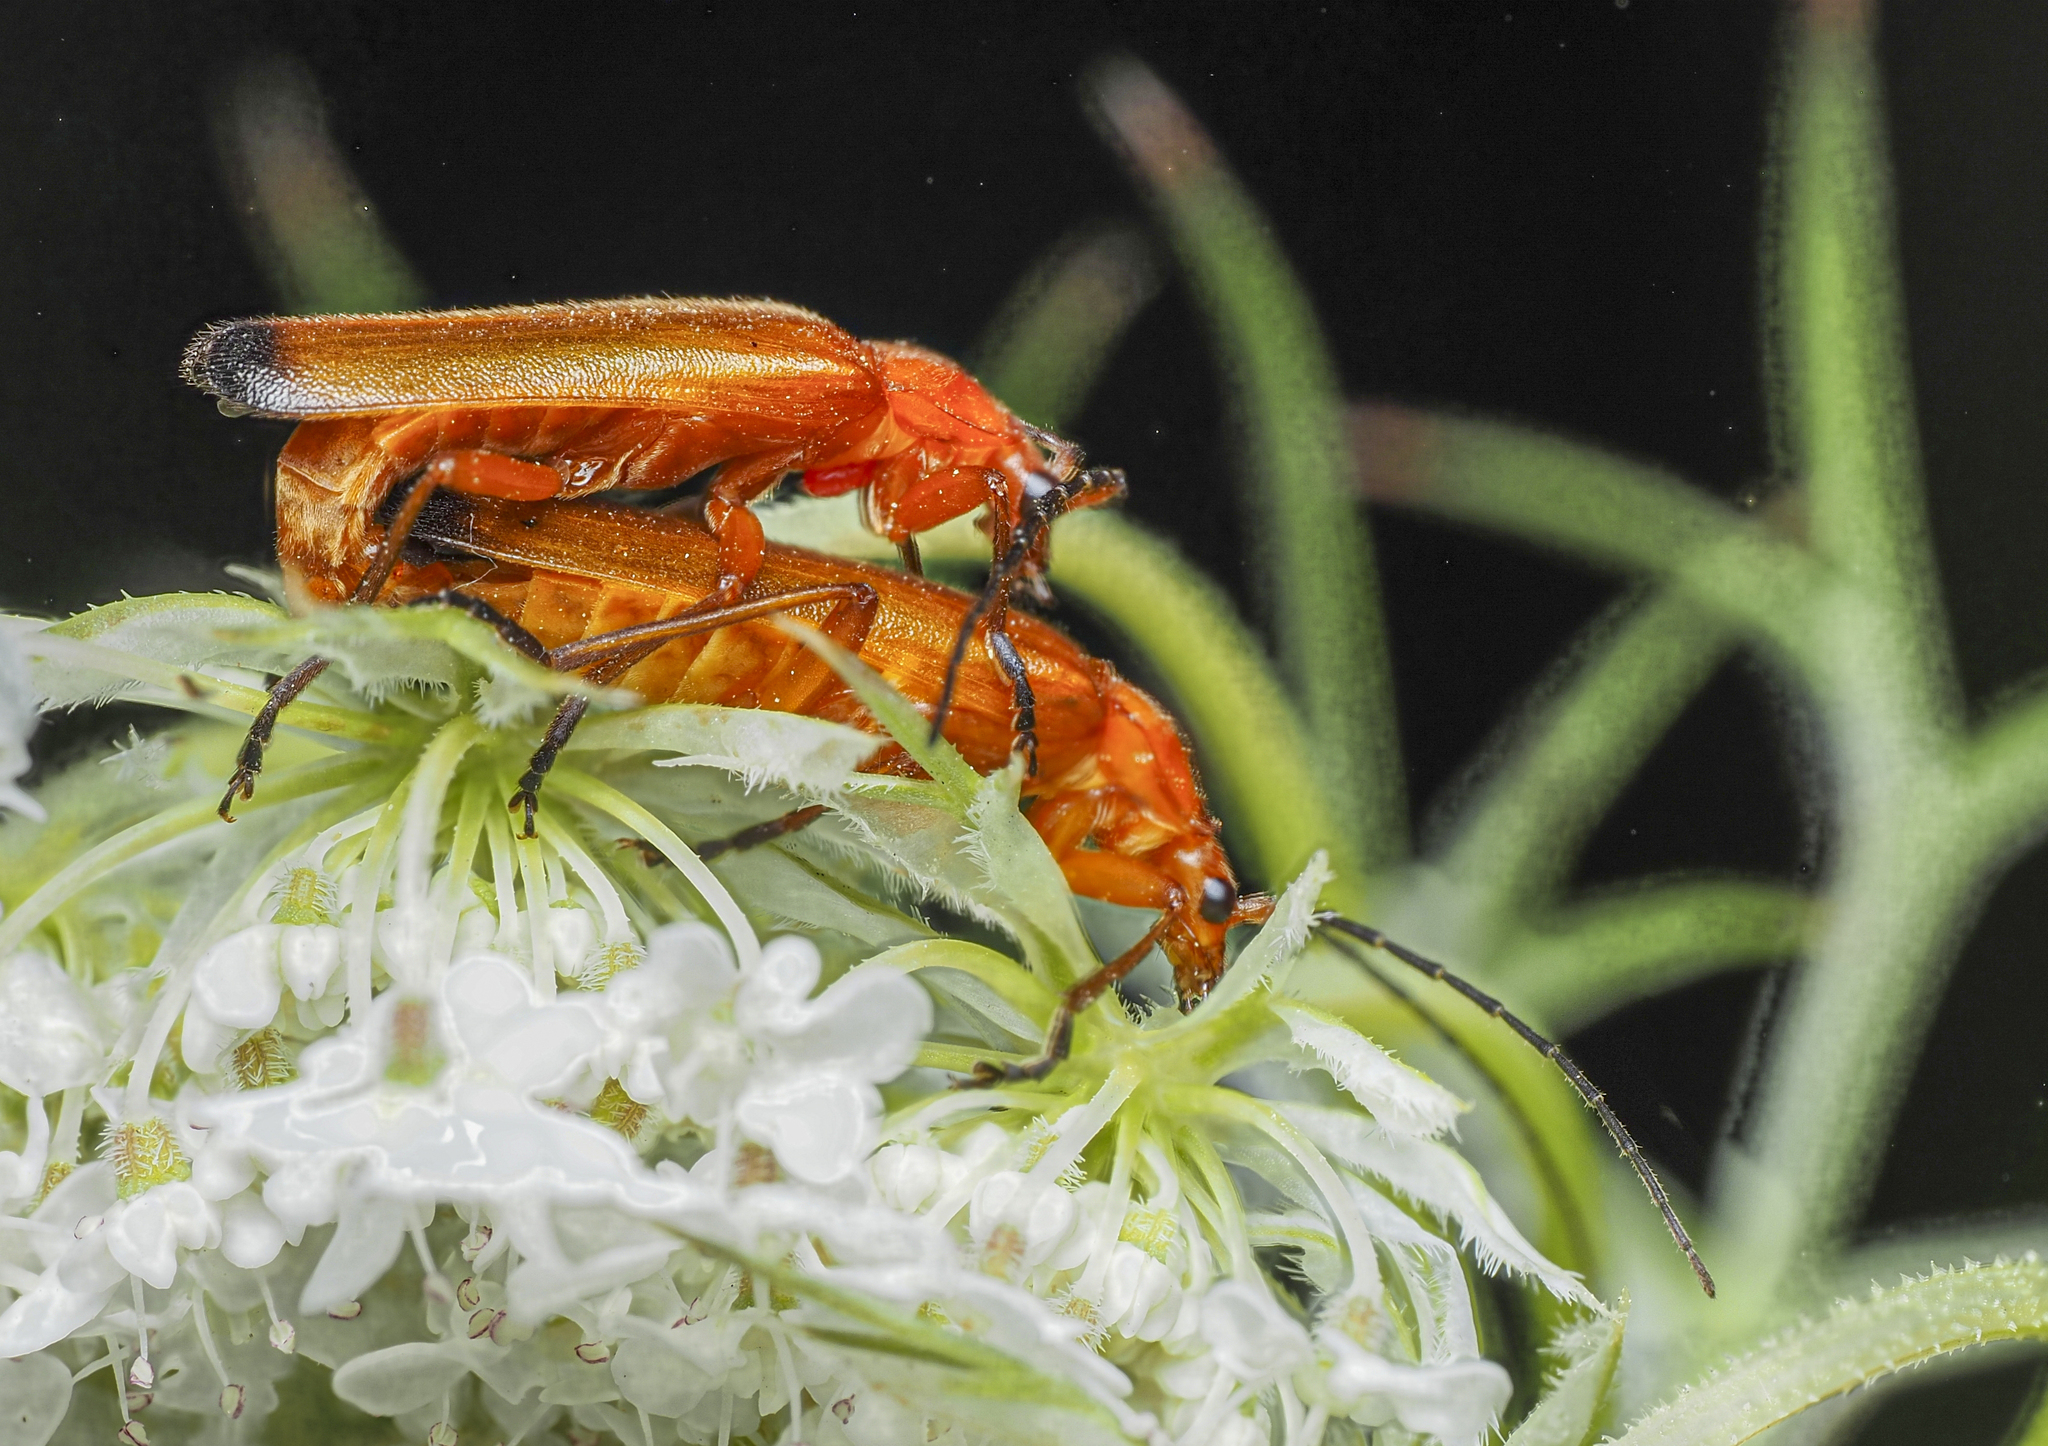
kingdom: Animalia
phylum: Arthropoda
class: Insecta
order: Coleoptera
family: Cantharidae
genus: Rhagonycha
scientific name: Rhagonycha fulva
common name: Common red soldier beetle
